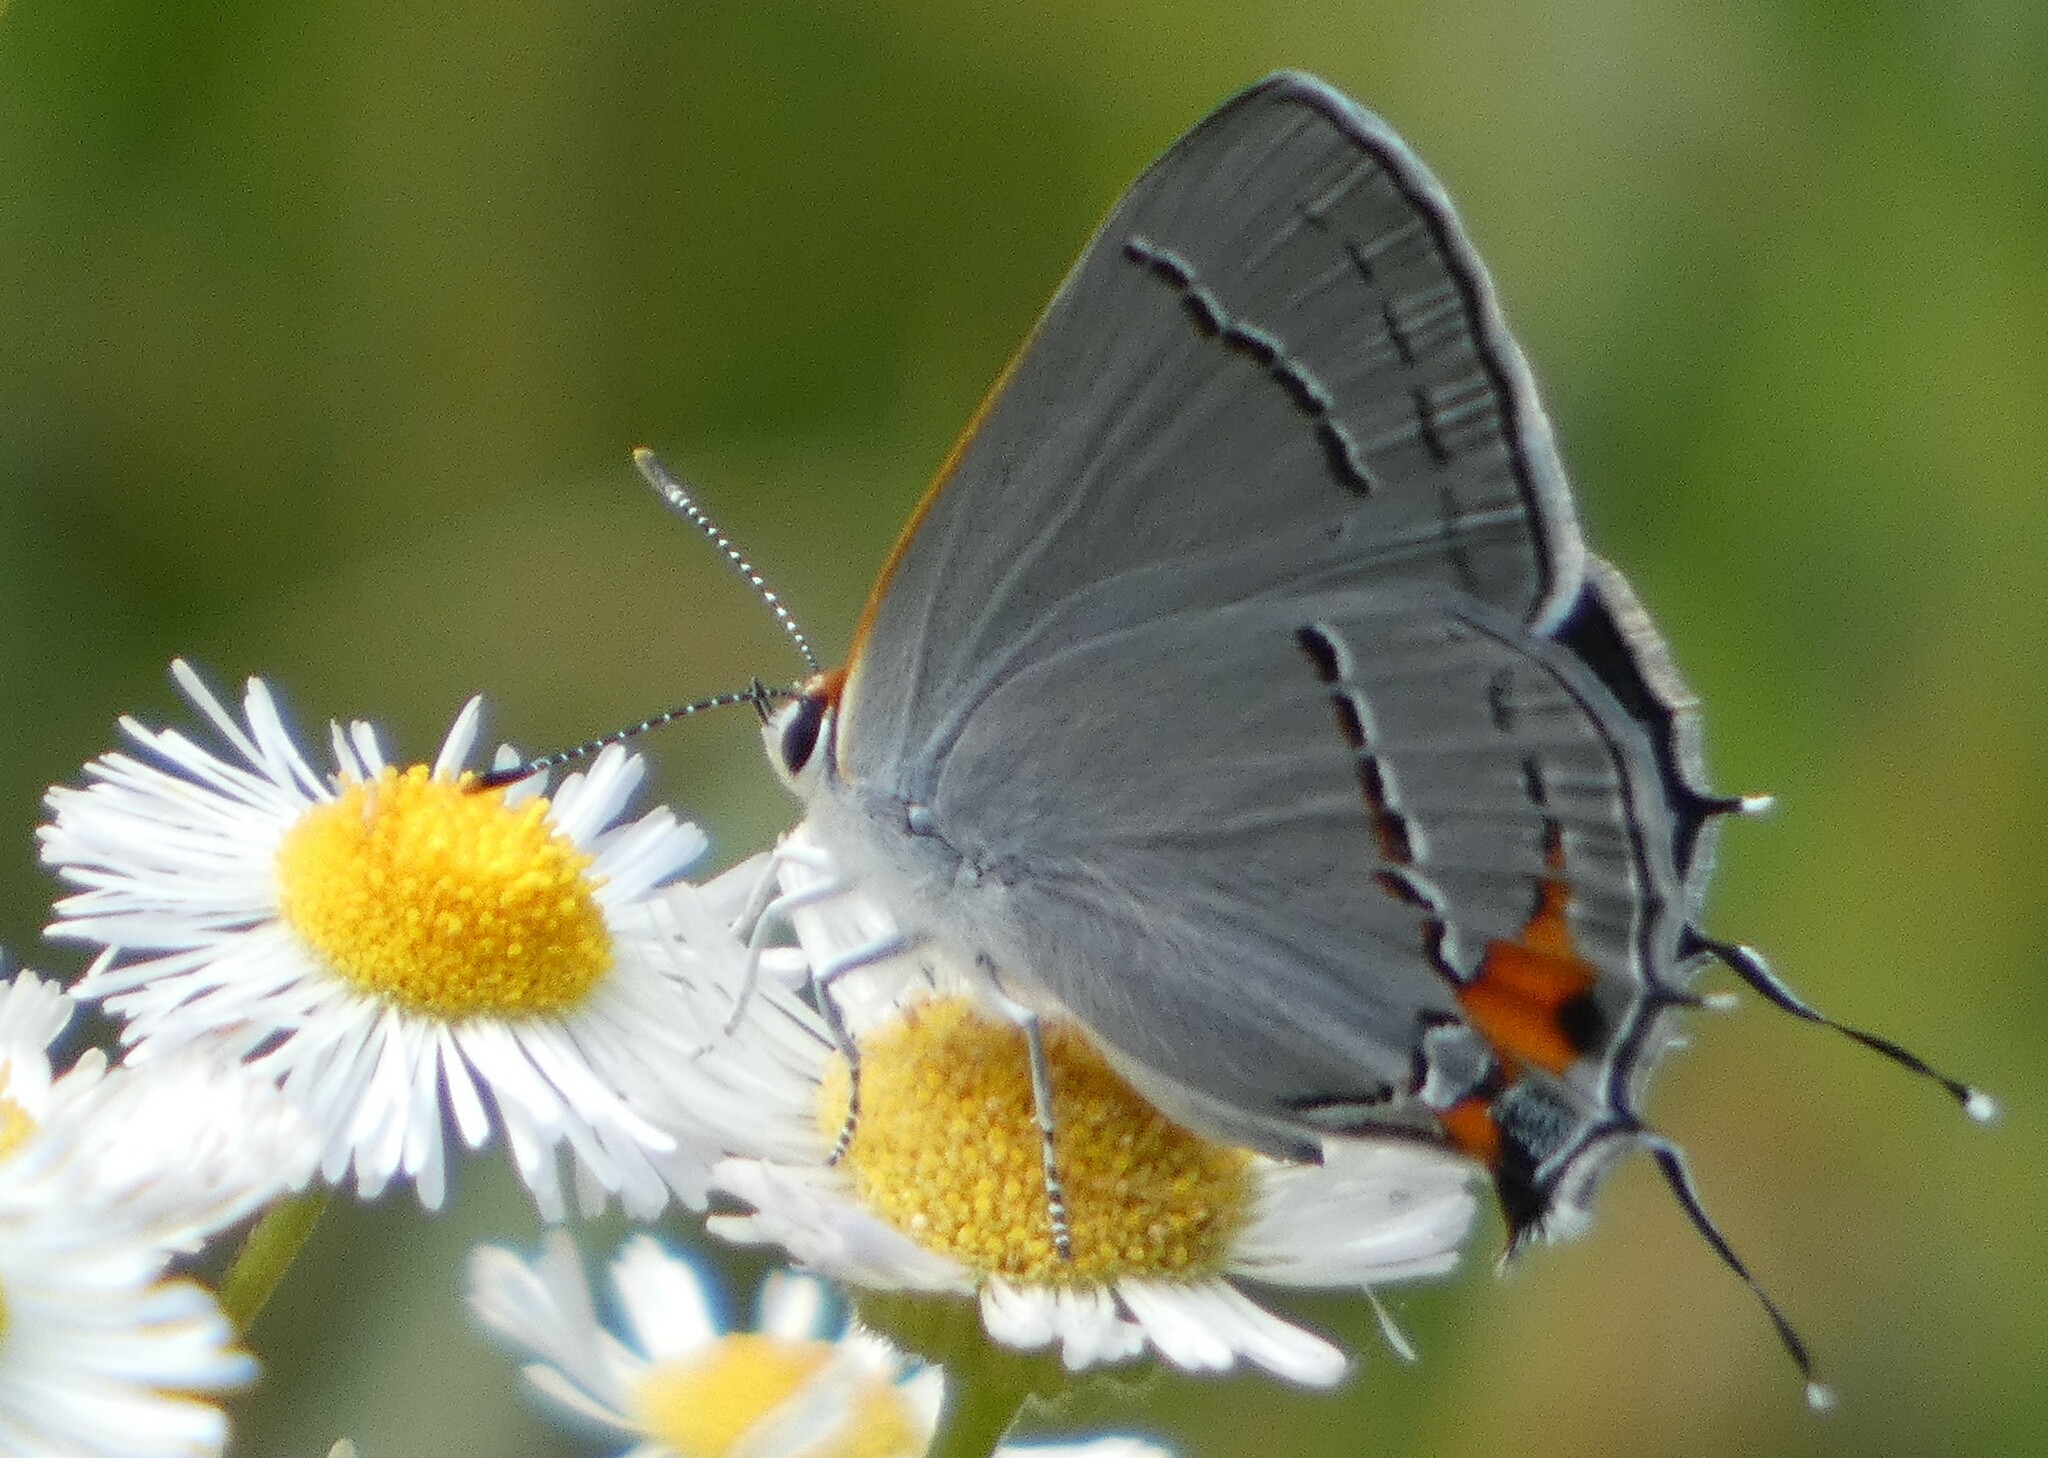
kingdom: Animalia
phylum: Arthropoda
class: Insecta
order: Lepidoptera
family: Lycaenidae
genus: Strymon
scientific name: Strymon melinus
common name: Gray hairstreak
